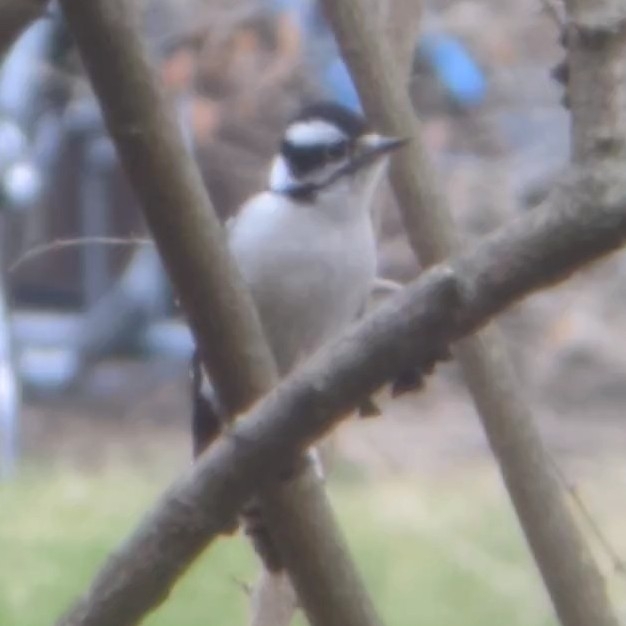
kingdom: Animalia
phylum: Chordata
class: Aves
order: Piciformes
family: Picidae
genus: Dryobates
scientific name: Dryobates pubescens
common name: Downy woodpecker
